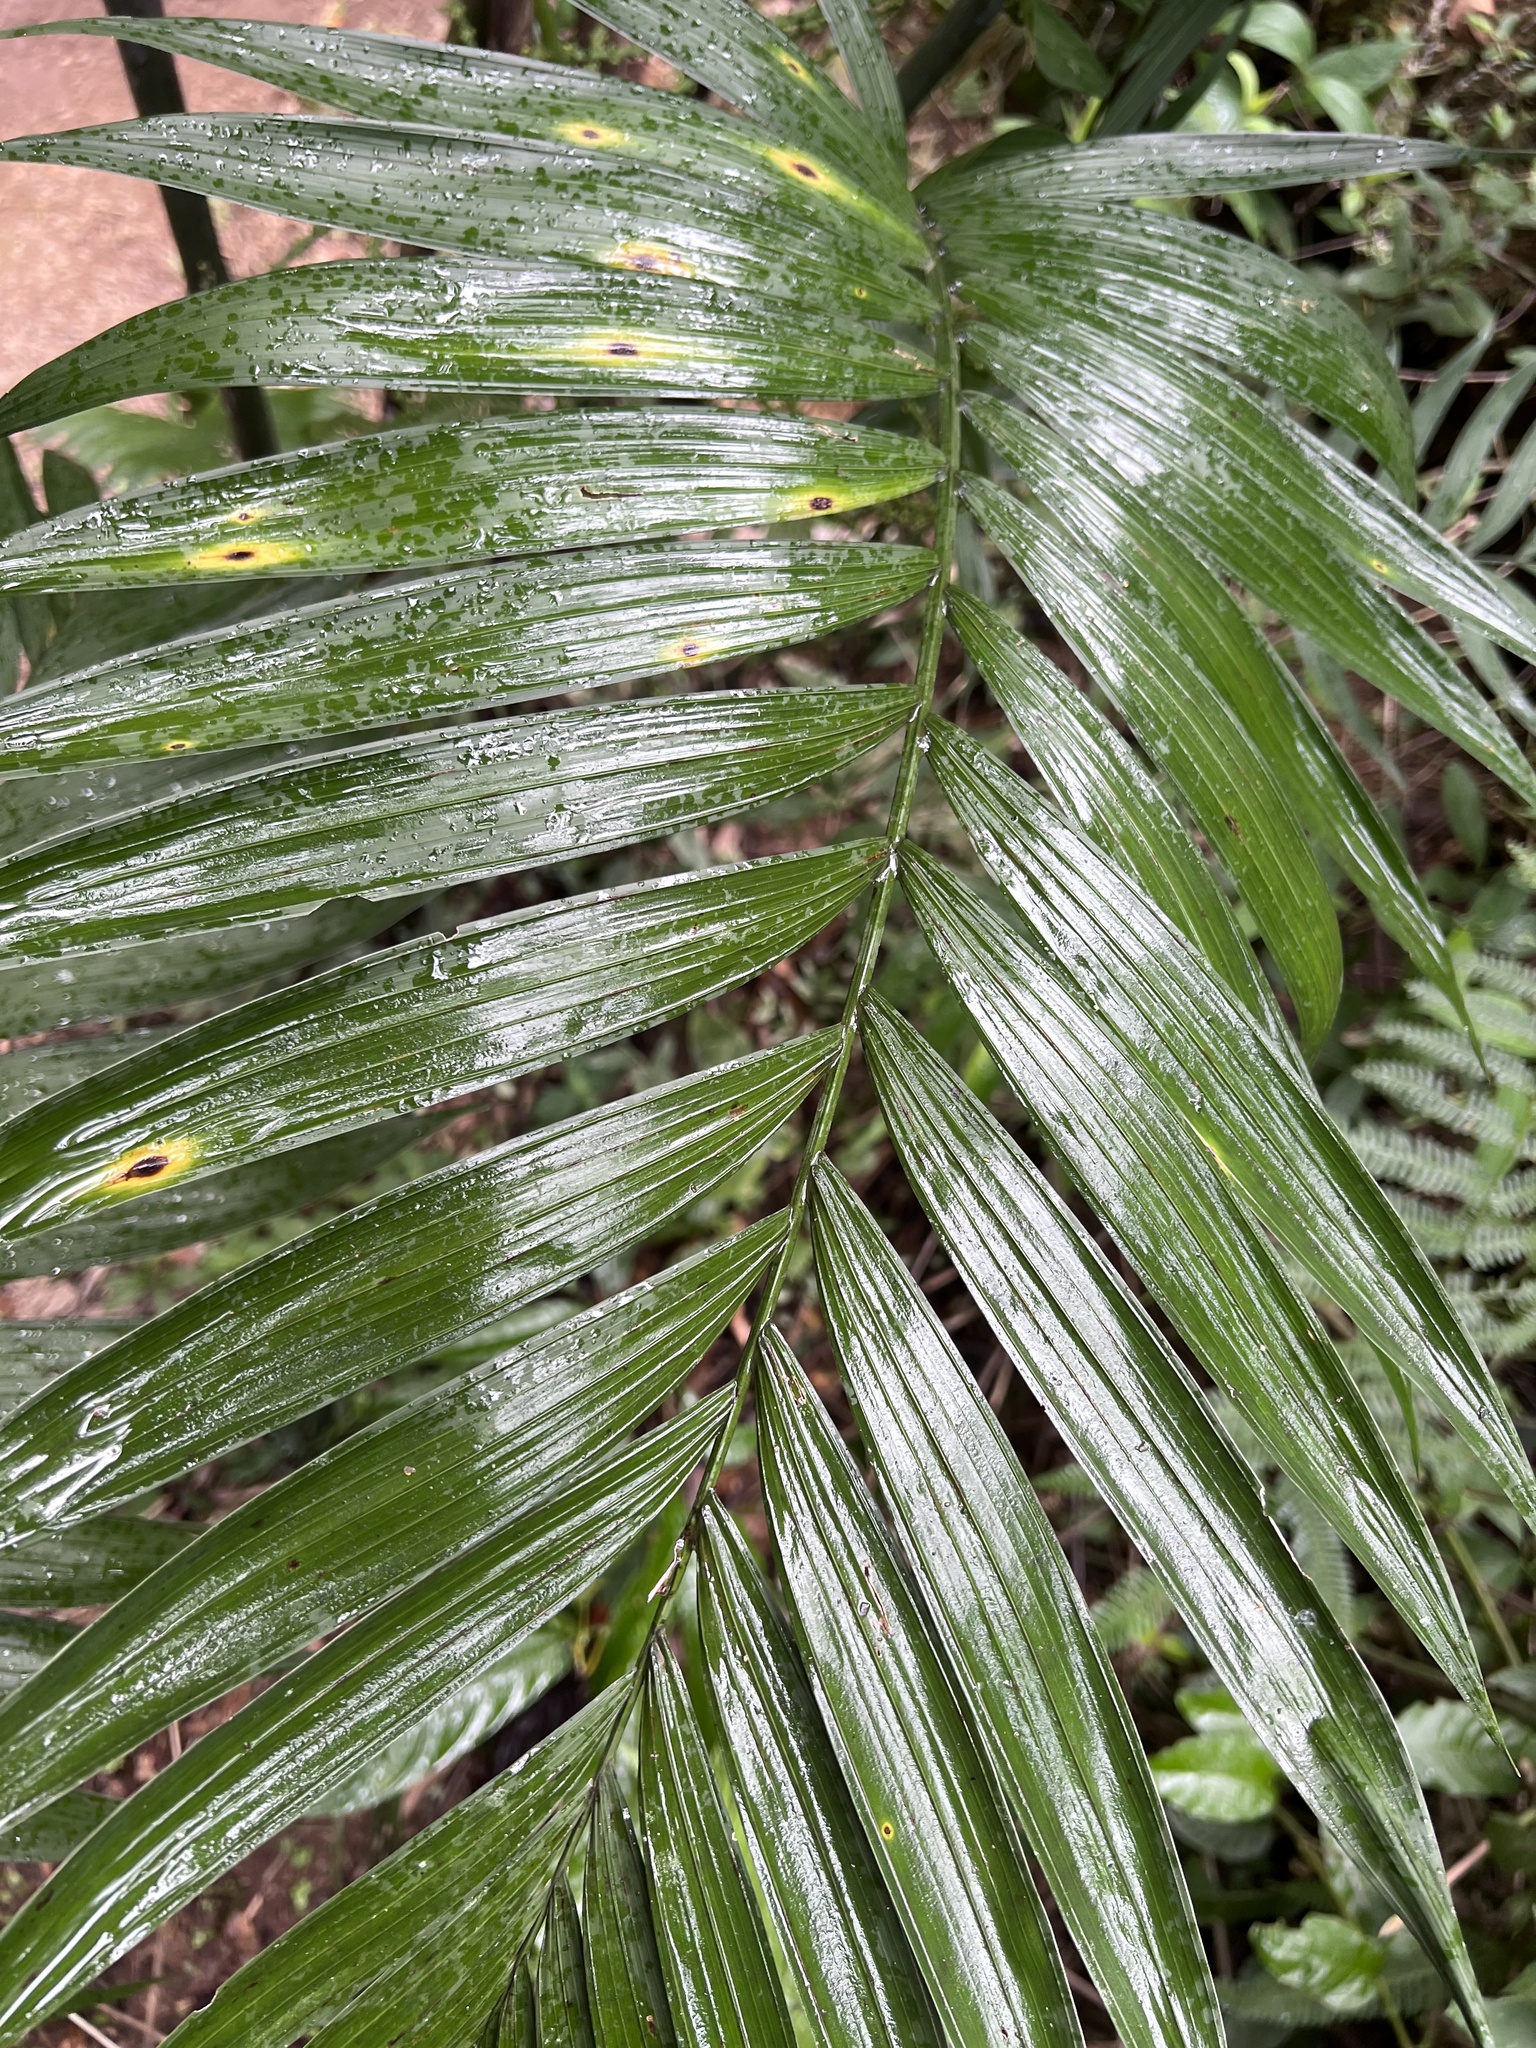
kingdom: Plantae
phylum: Tracheophyta
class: Liliopsida
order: Arecales
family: Arecaceae
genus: Chamaedorea
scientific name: Chamaedorea tepejilote
